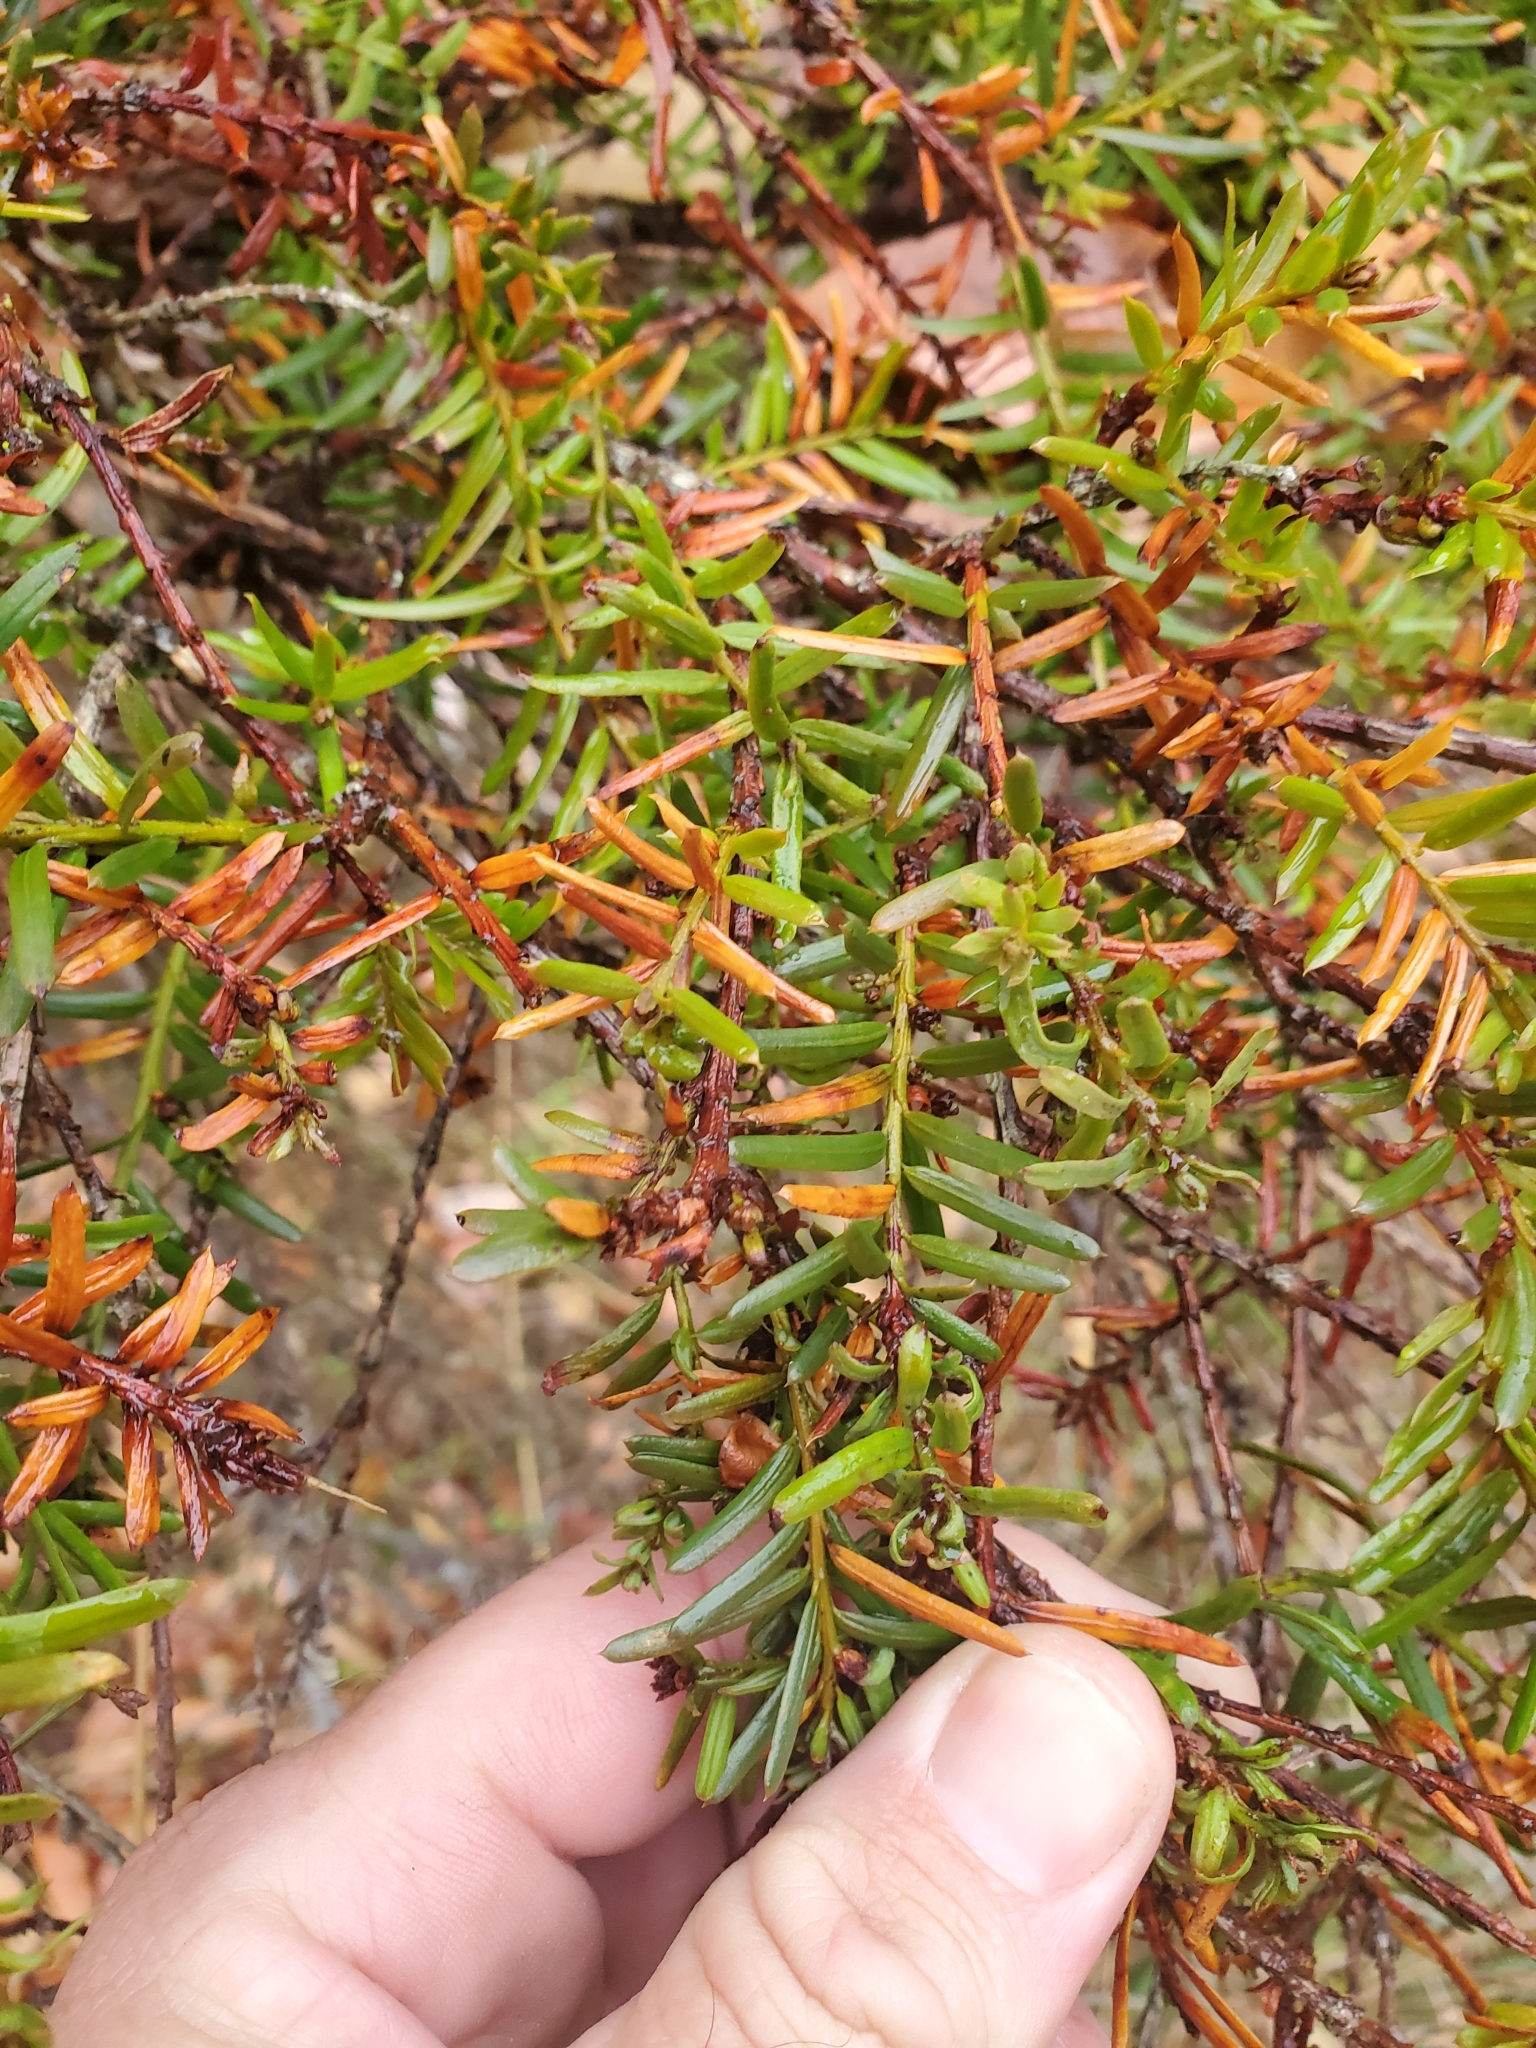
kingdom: Plantae
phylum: Tracheophyta
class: Pinopsida
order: Pinales
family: Taxaceae
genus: Taxus
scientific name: Taxus brevifolia
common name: Pacific yew
